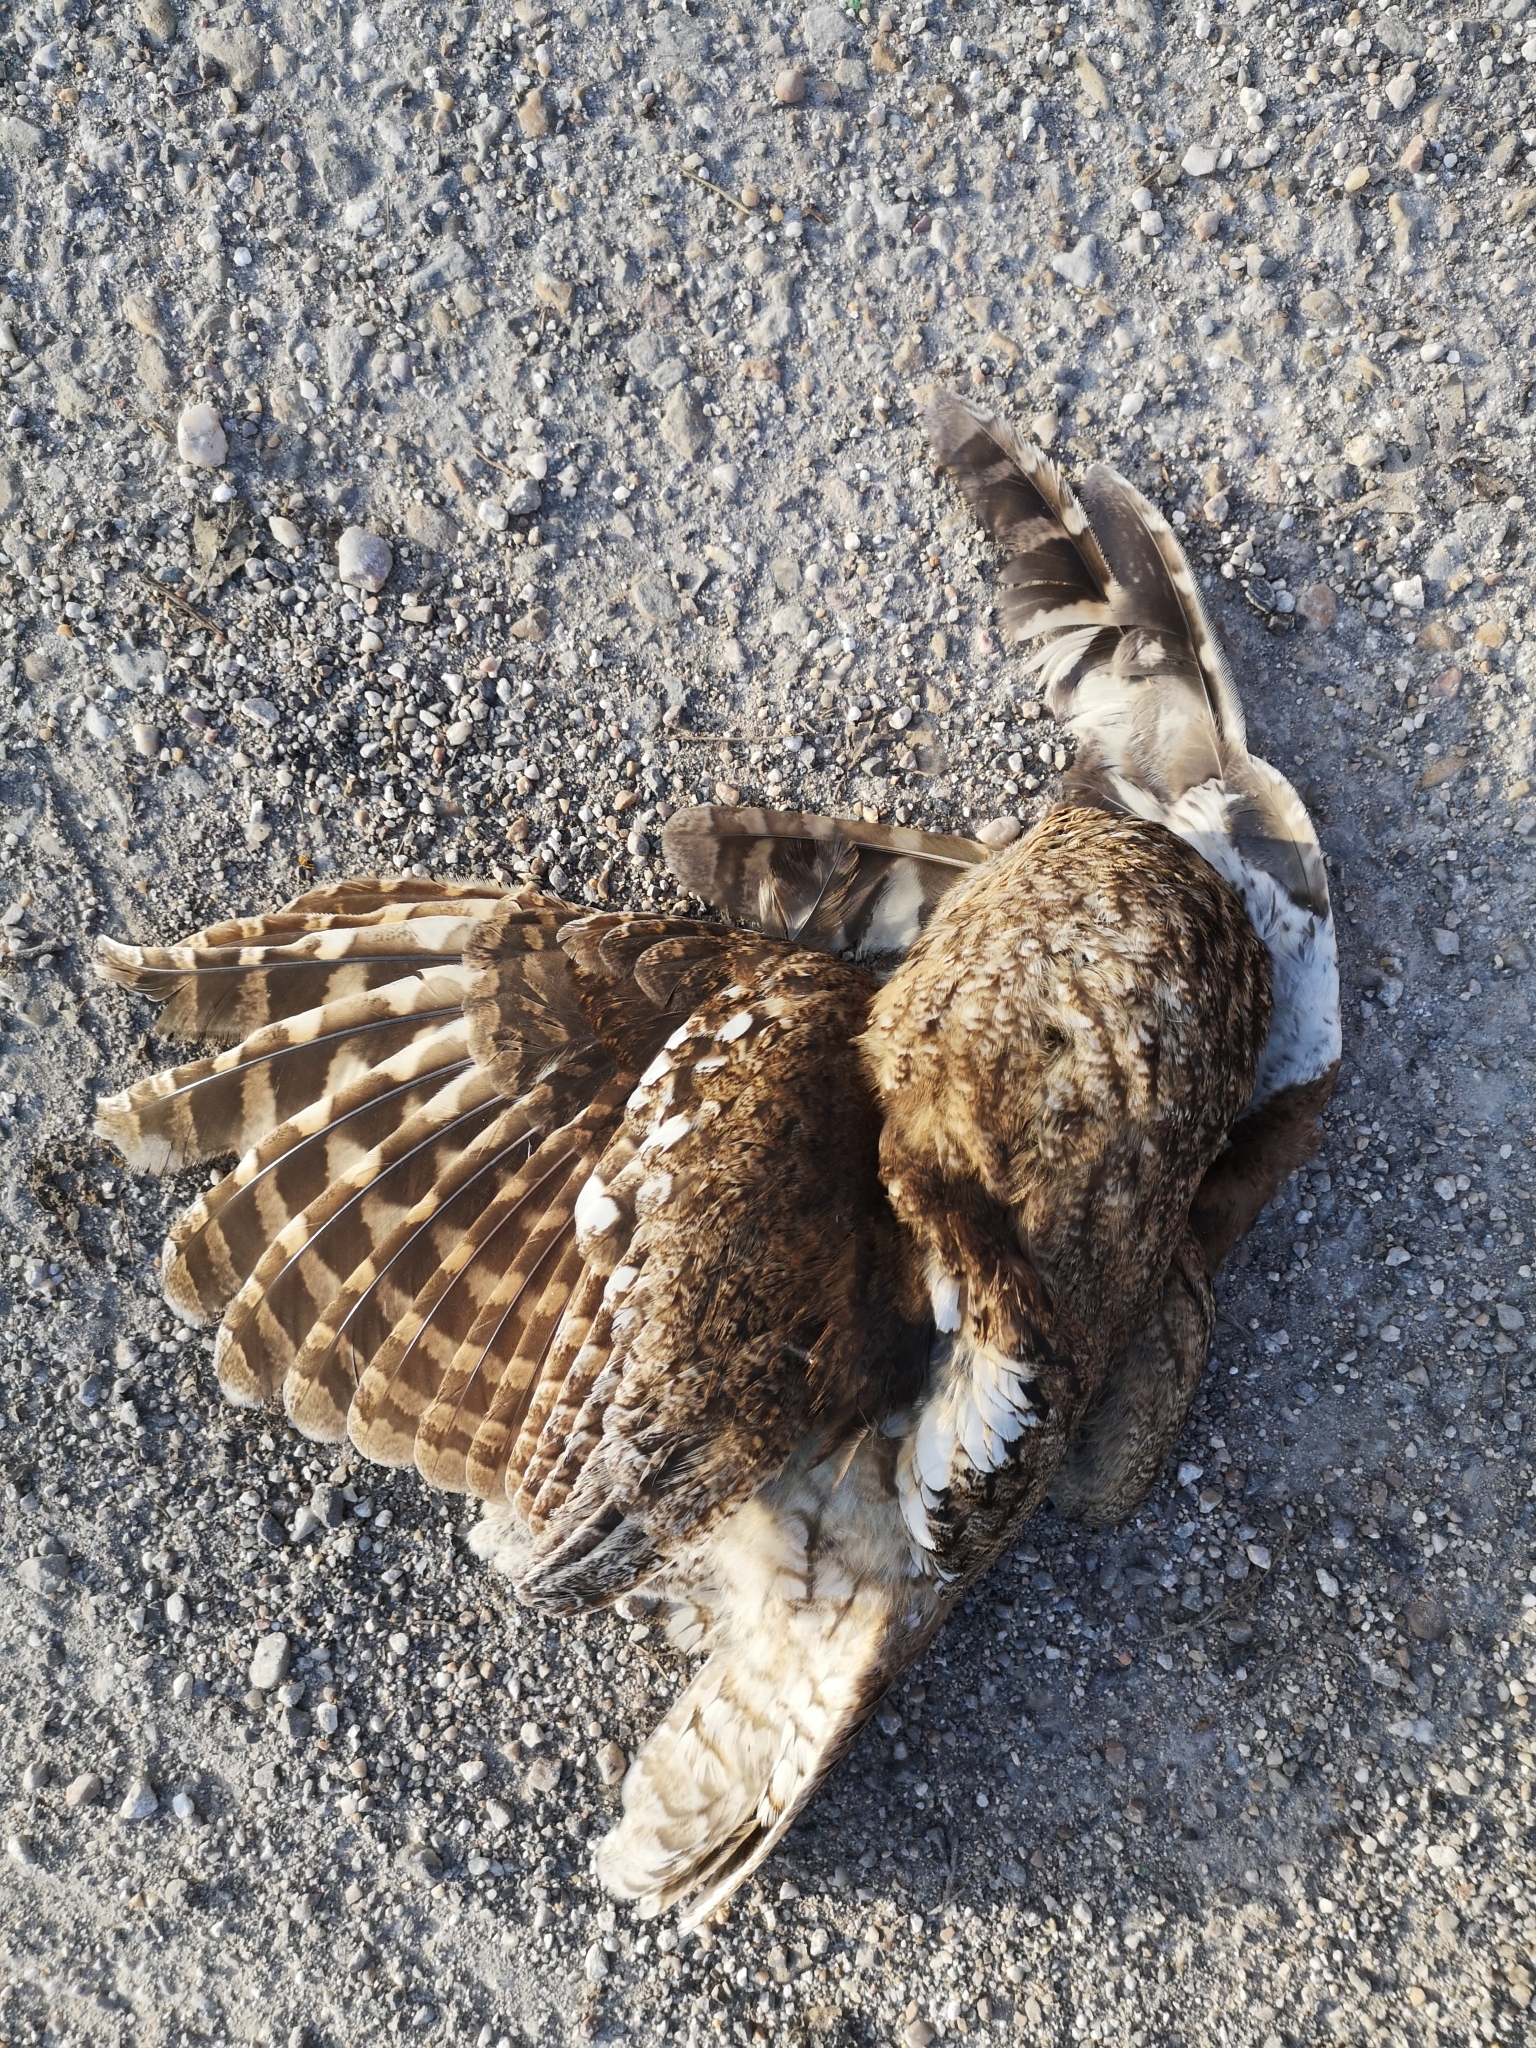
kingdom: Animalia
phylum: Chordata
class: Aves
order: Strigiformes
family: Strigidae
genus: Strix
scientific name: Strix aluco
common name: Tawny owl
